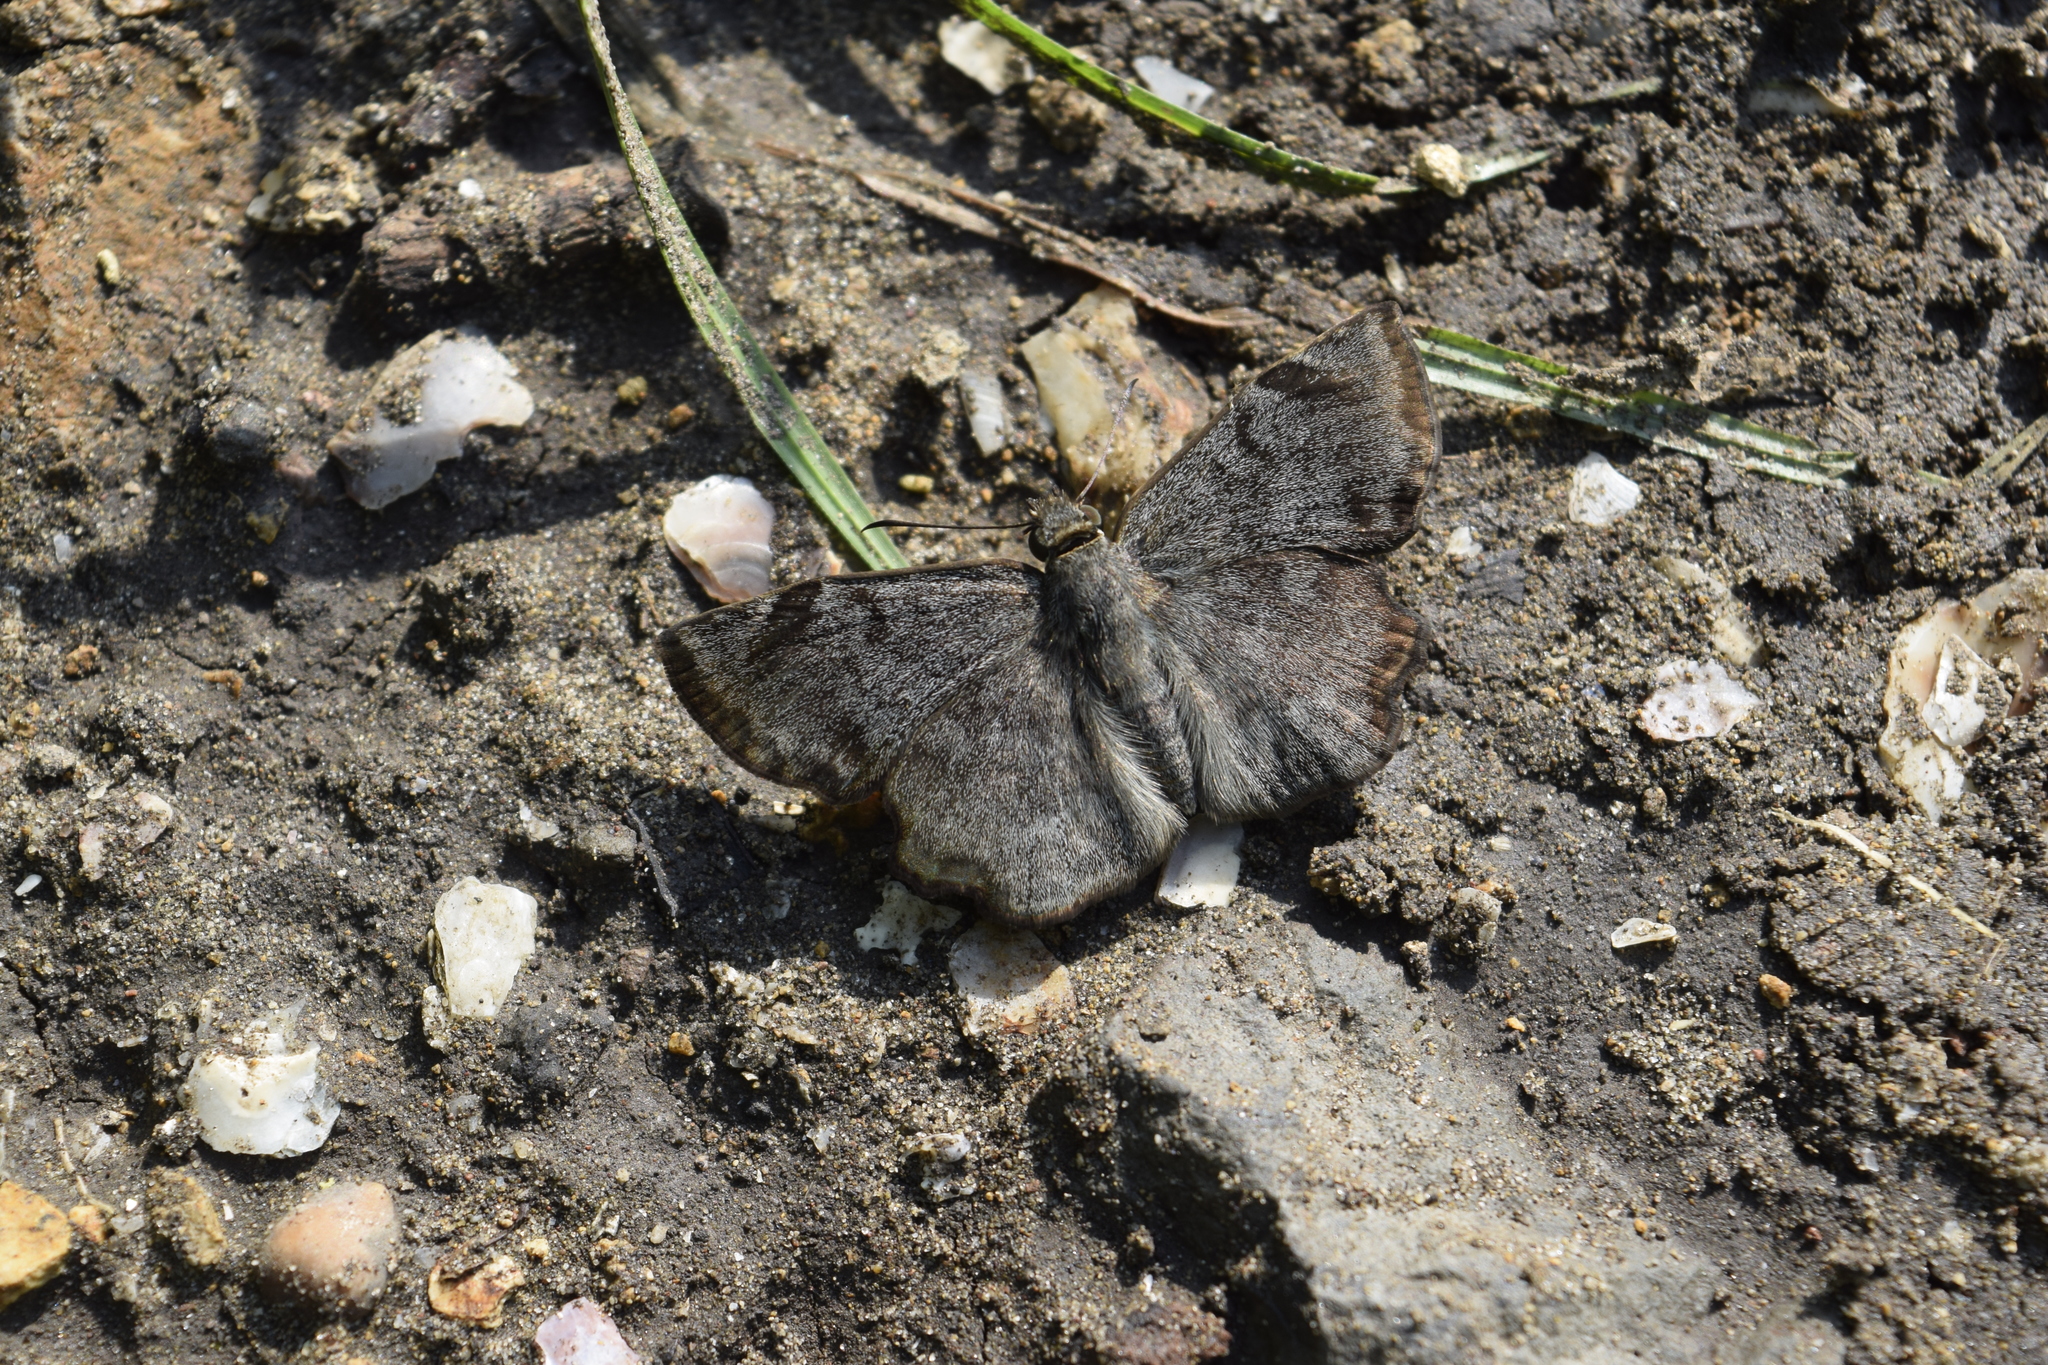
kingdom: Animalia
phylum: Arthropoda
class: Insecta
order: Lepidoptera
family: Hesperiidae
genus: Antigonus
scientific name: Antigonus erosus
